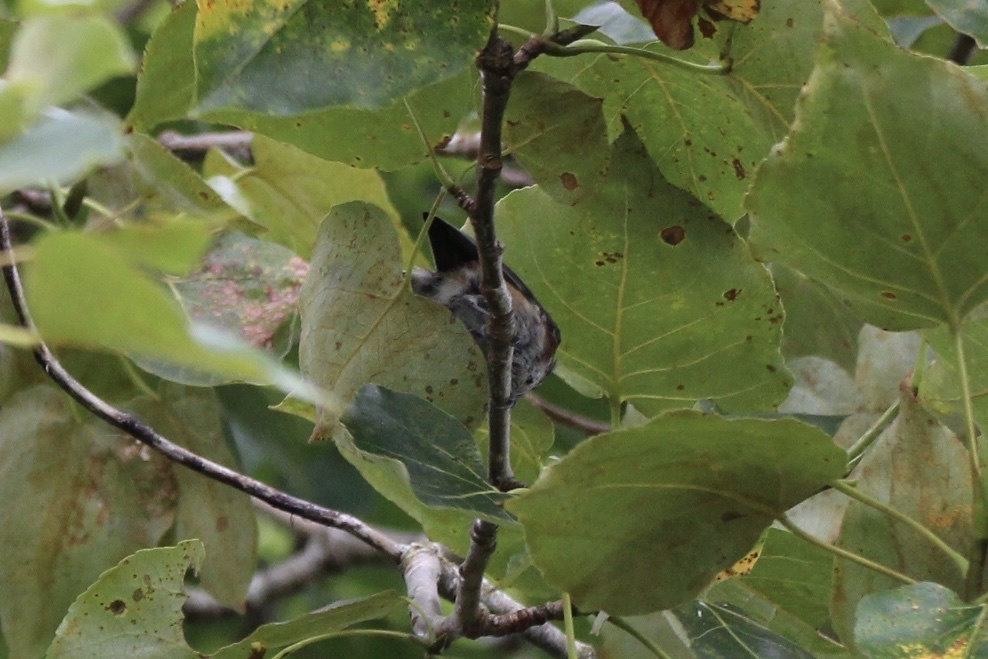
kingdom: Animalia
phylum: Chordata
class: Aves
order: Passeriformes
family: Paridae
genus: Poecile
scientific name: Poecile rufescens
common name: Chestnut-backed chickadee
